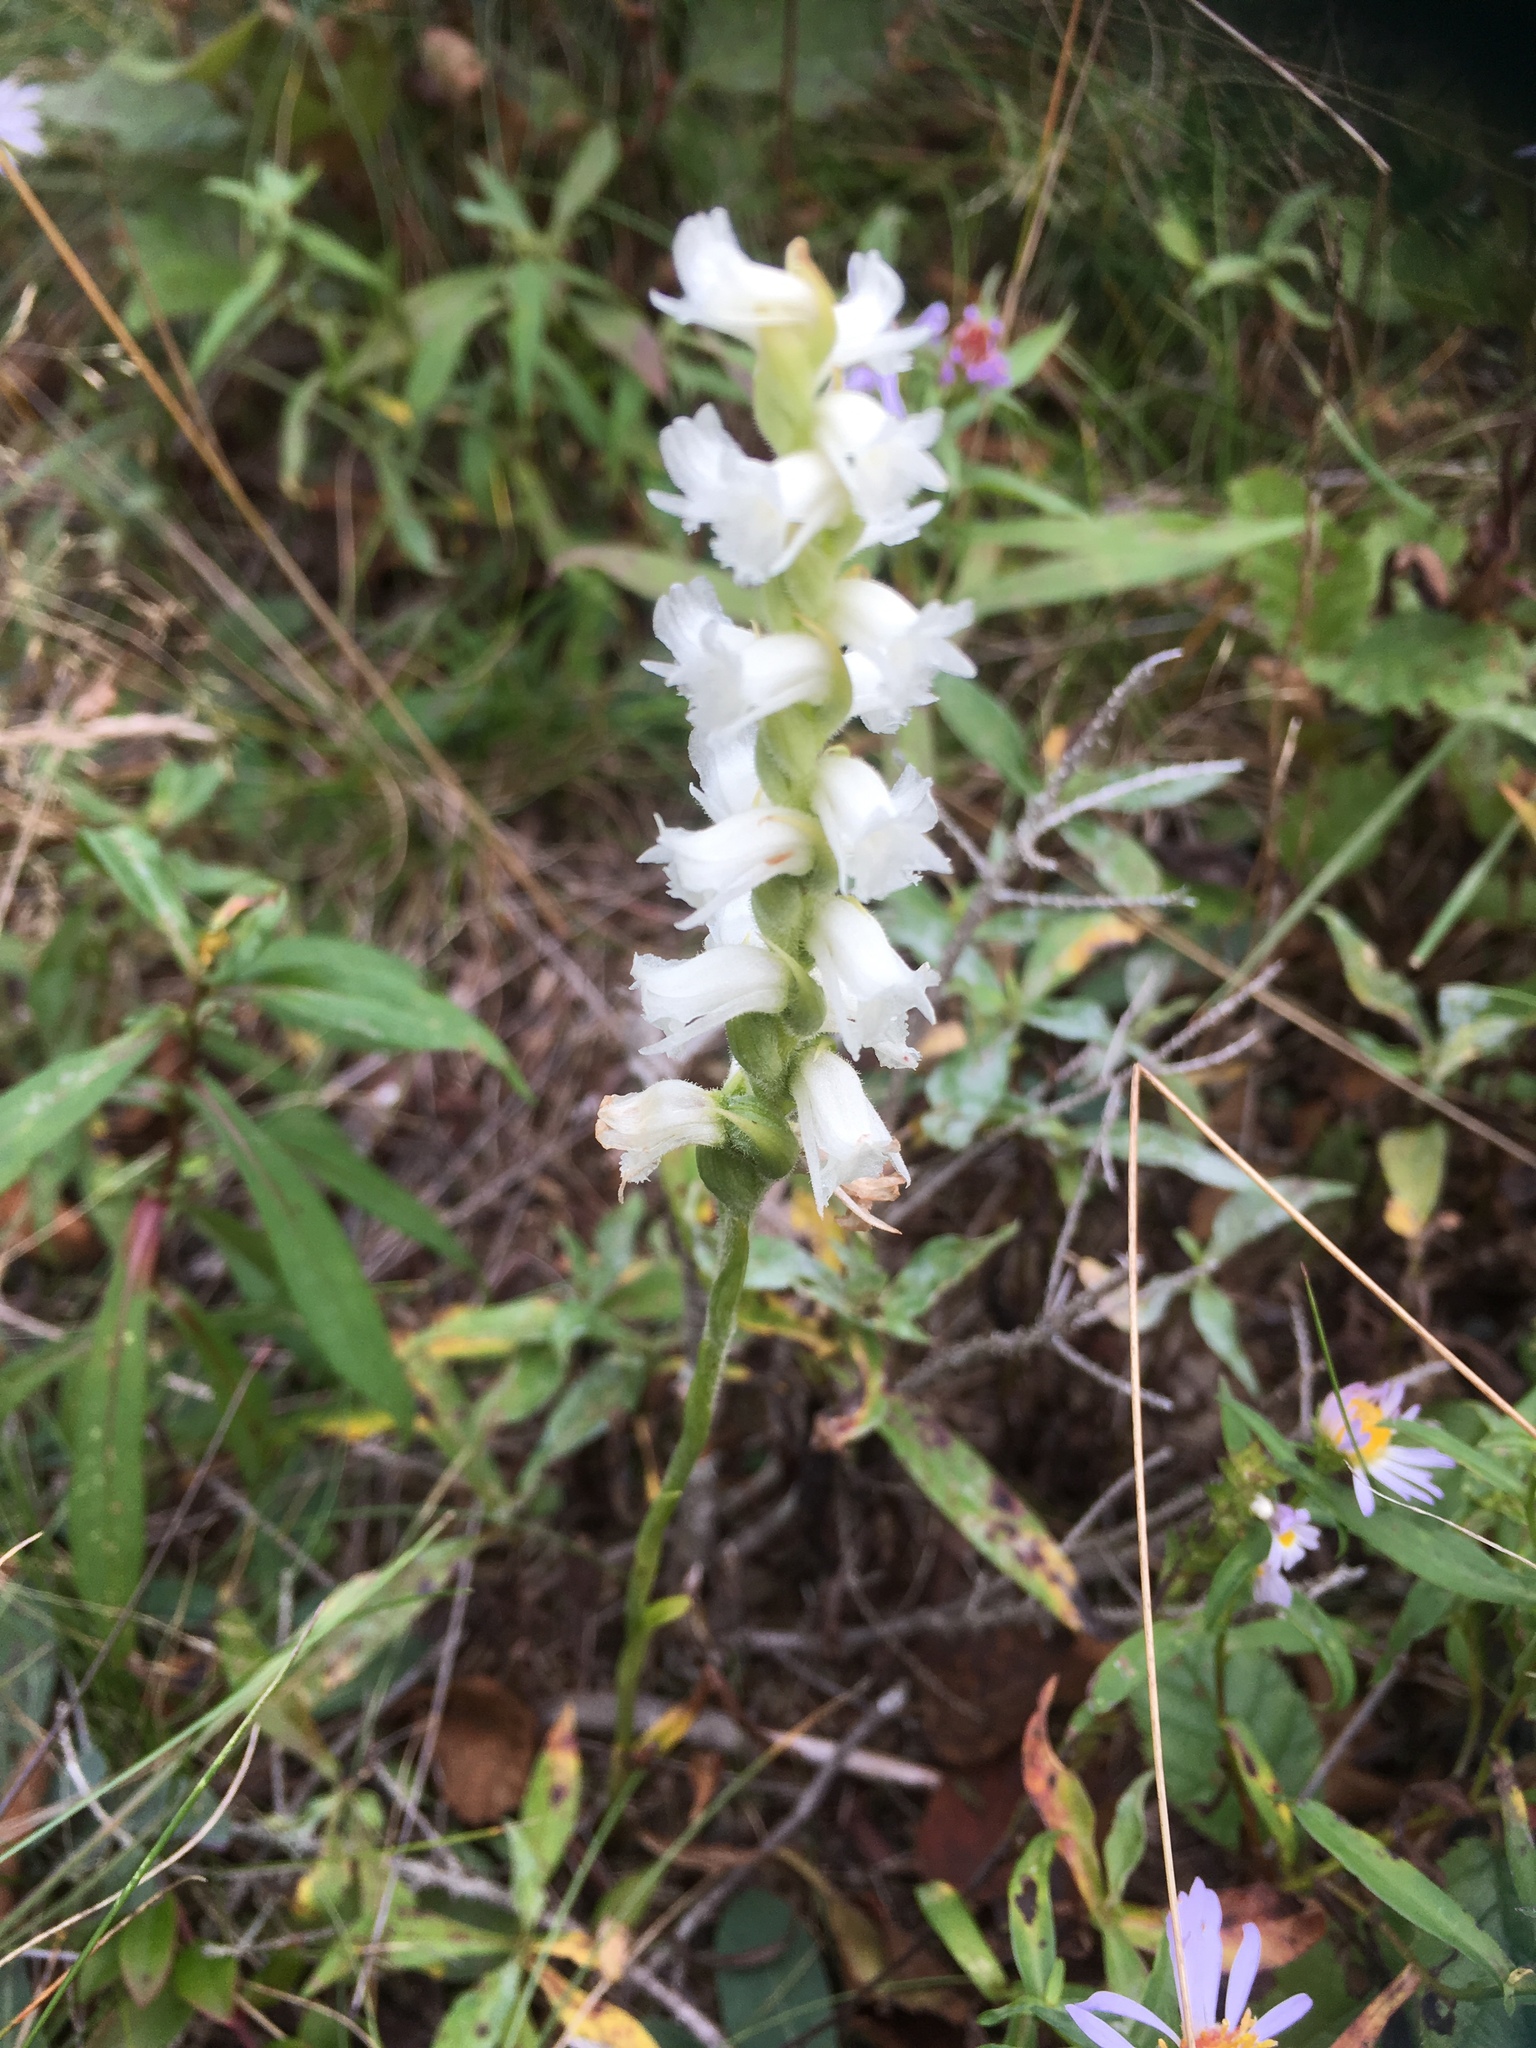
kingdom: Plantae
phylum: Tracheophyta
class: Liliopsida
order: Asparagales
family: Orchidaceae
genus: Spiranthes
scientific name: Spiranthes arcisepala
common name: Appalachian ladies'-tresses
